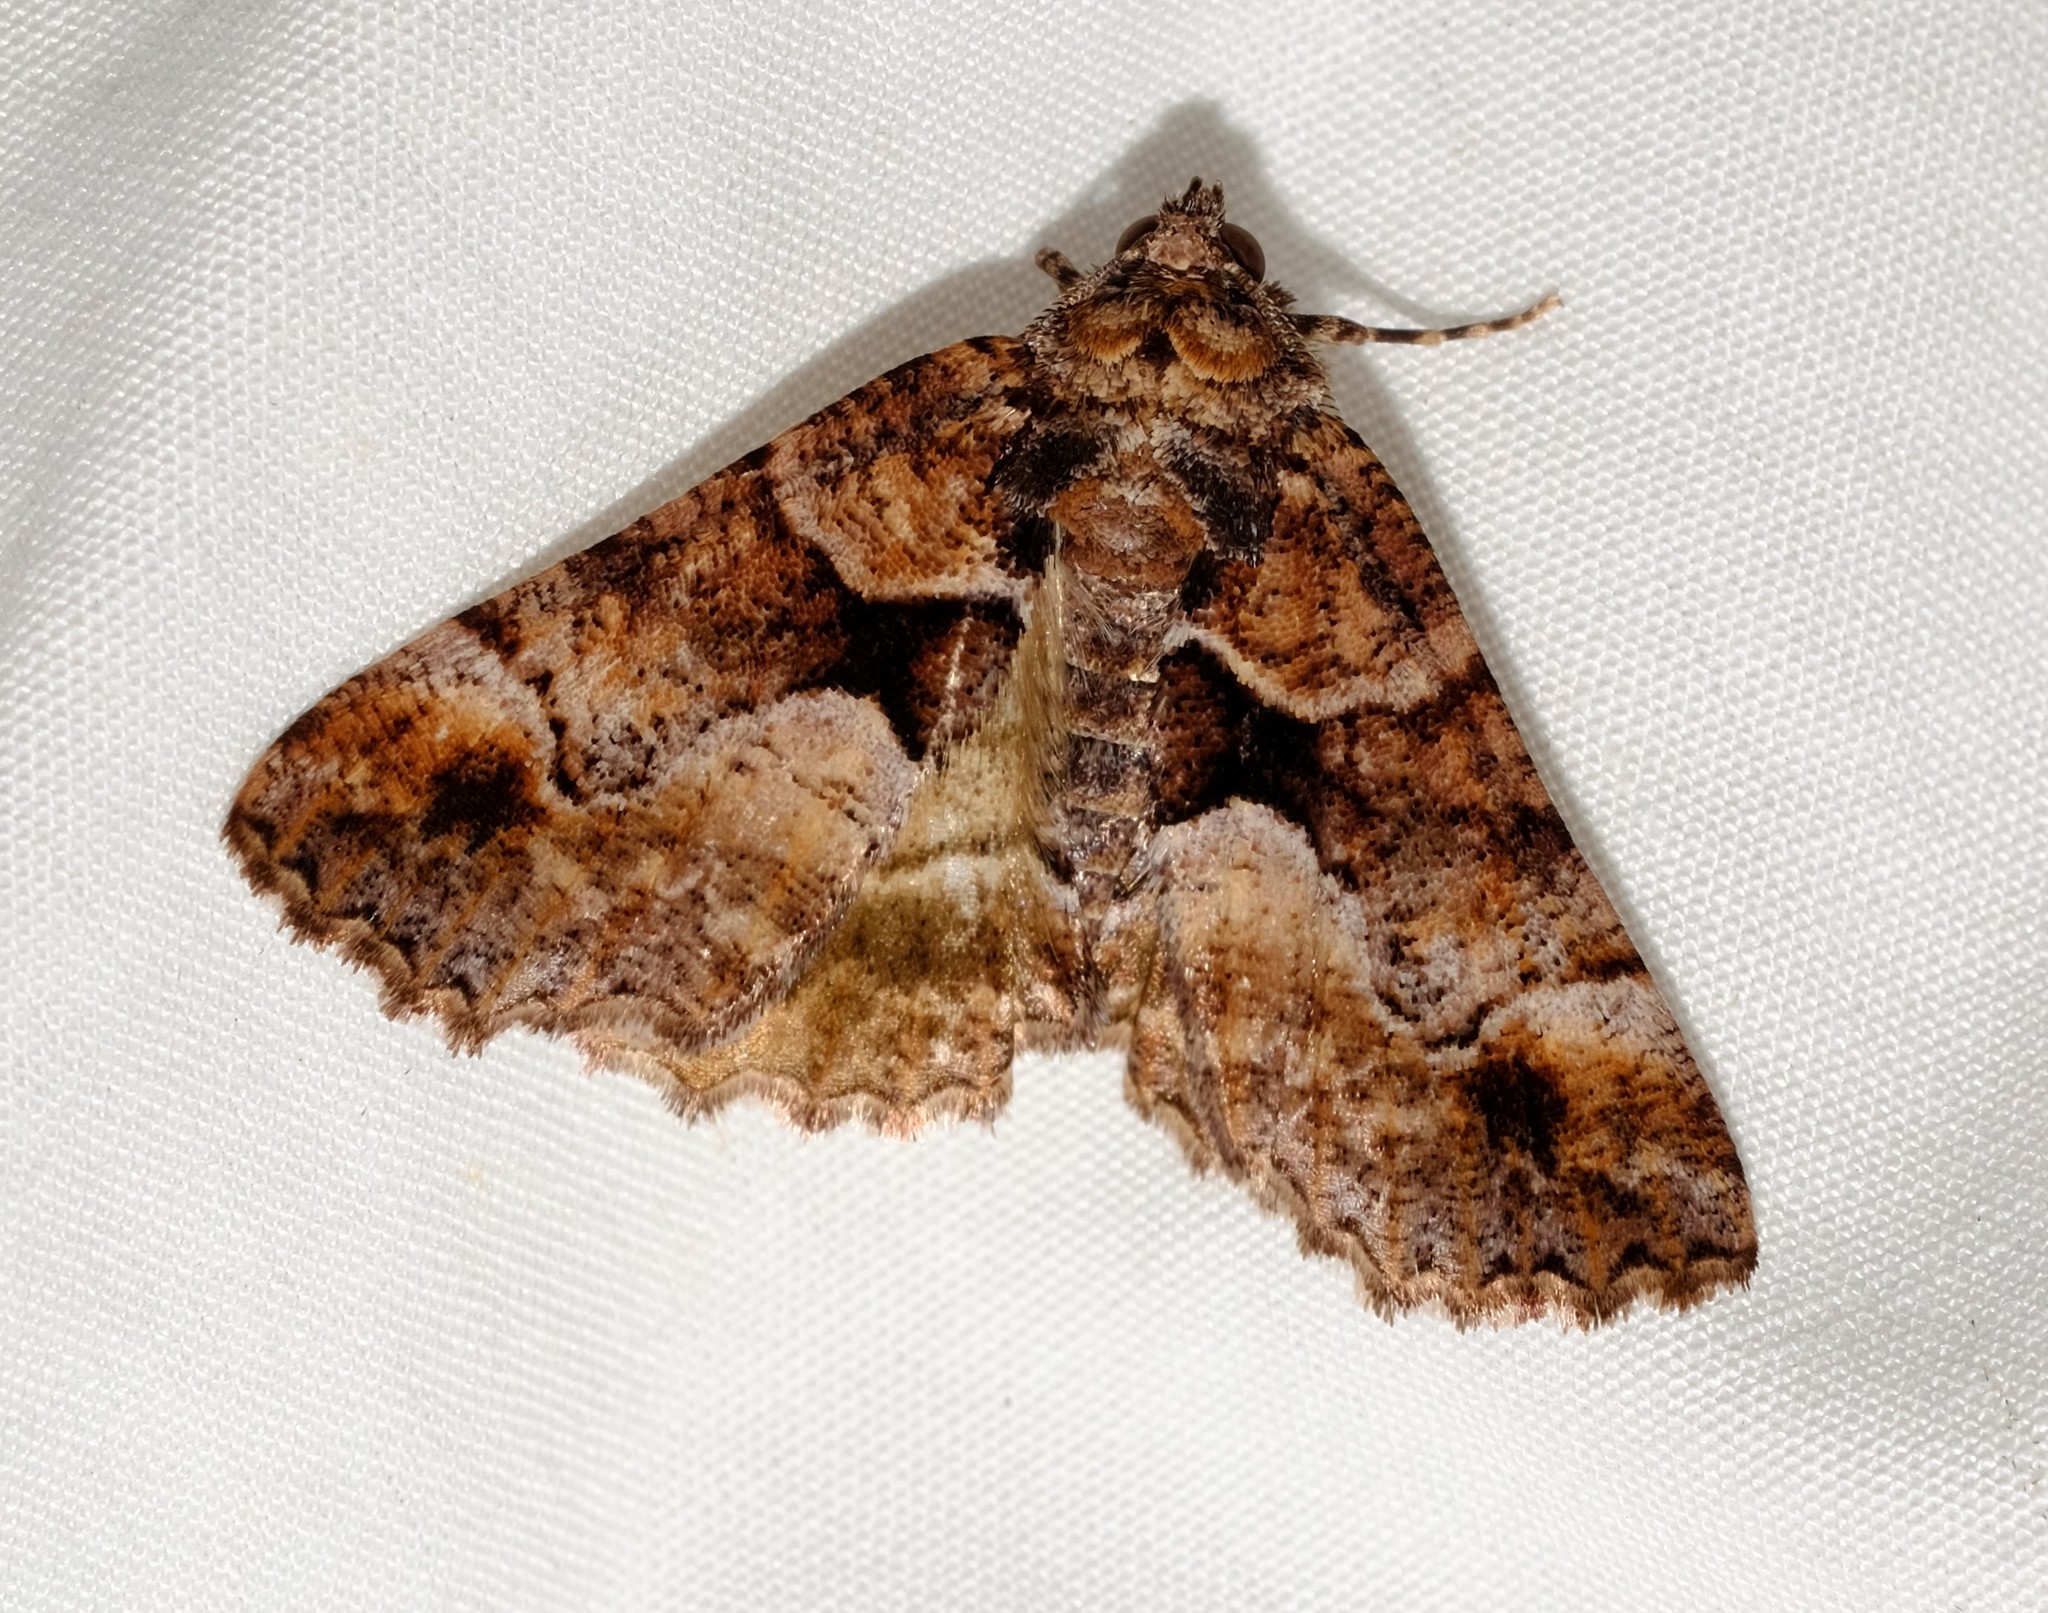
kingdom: Animalia
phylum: Arthropoda
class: Insecta
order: Lepidoptera
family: Geometridae
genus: Gastrina
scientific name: Gastrina cristaria
